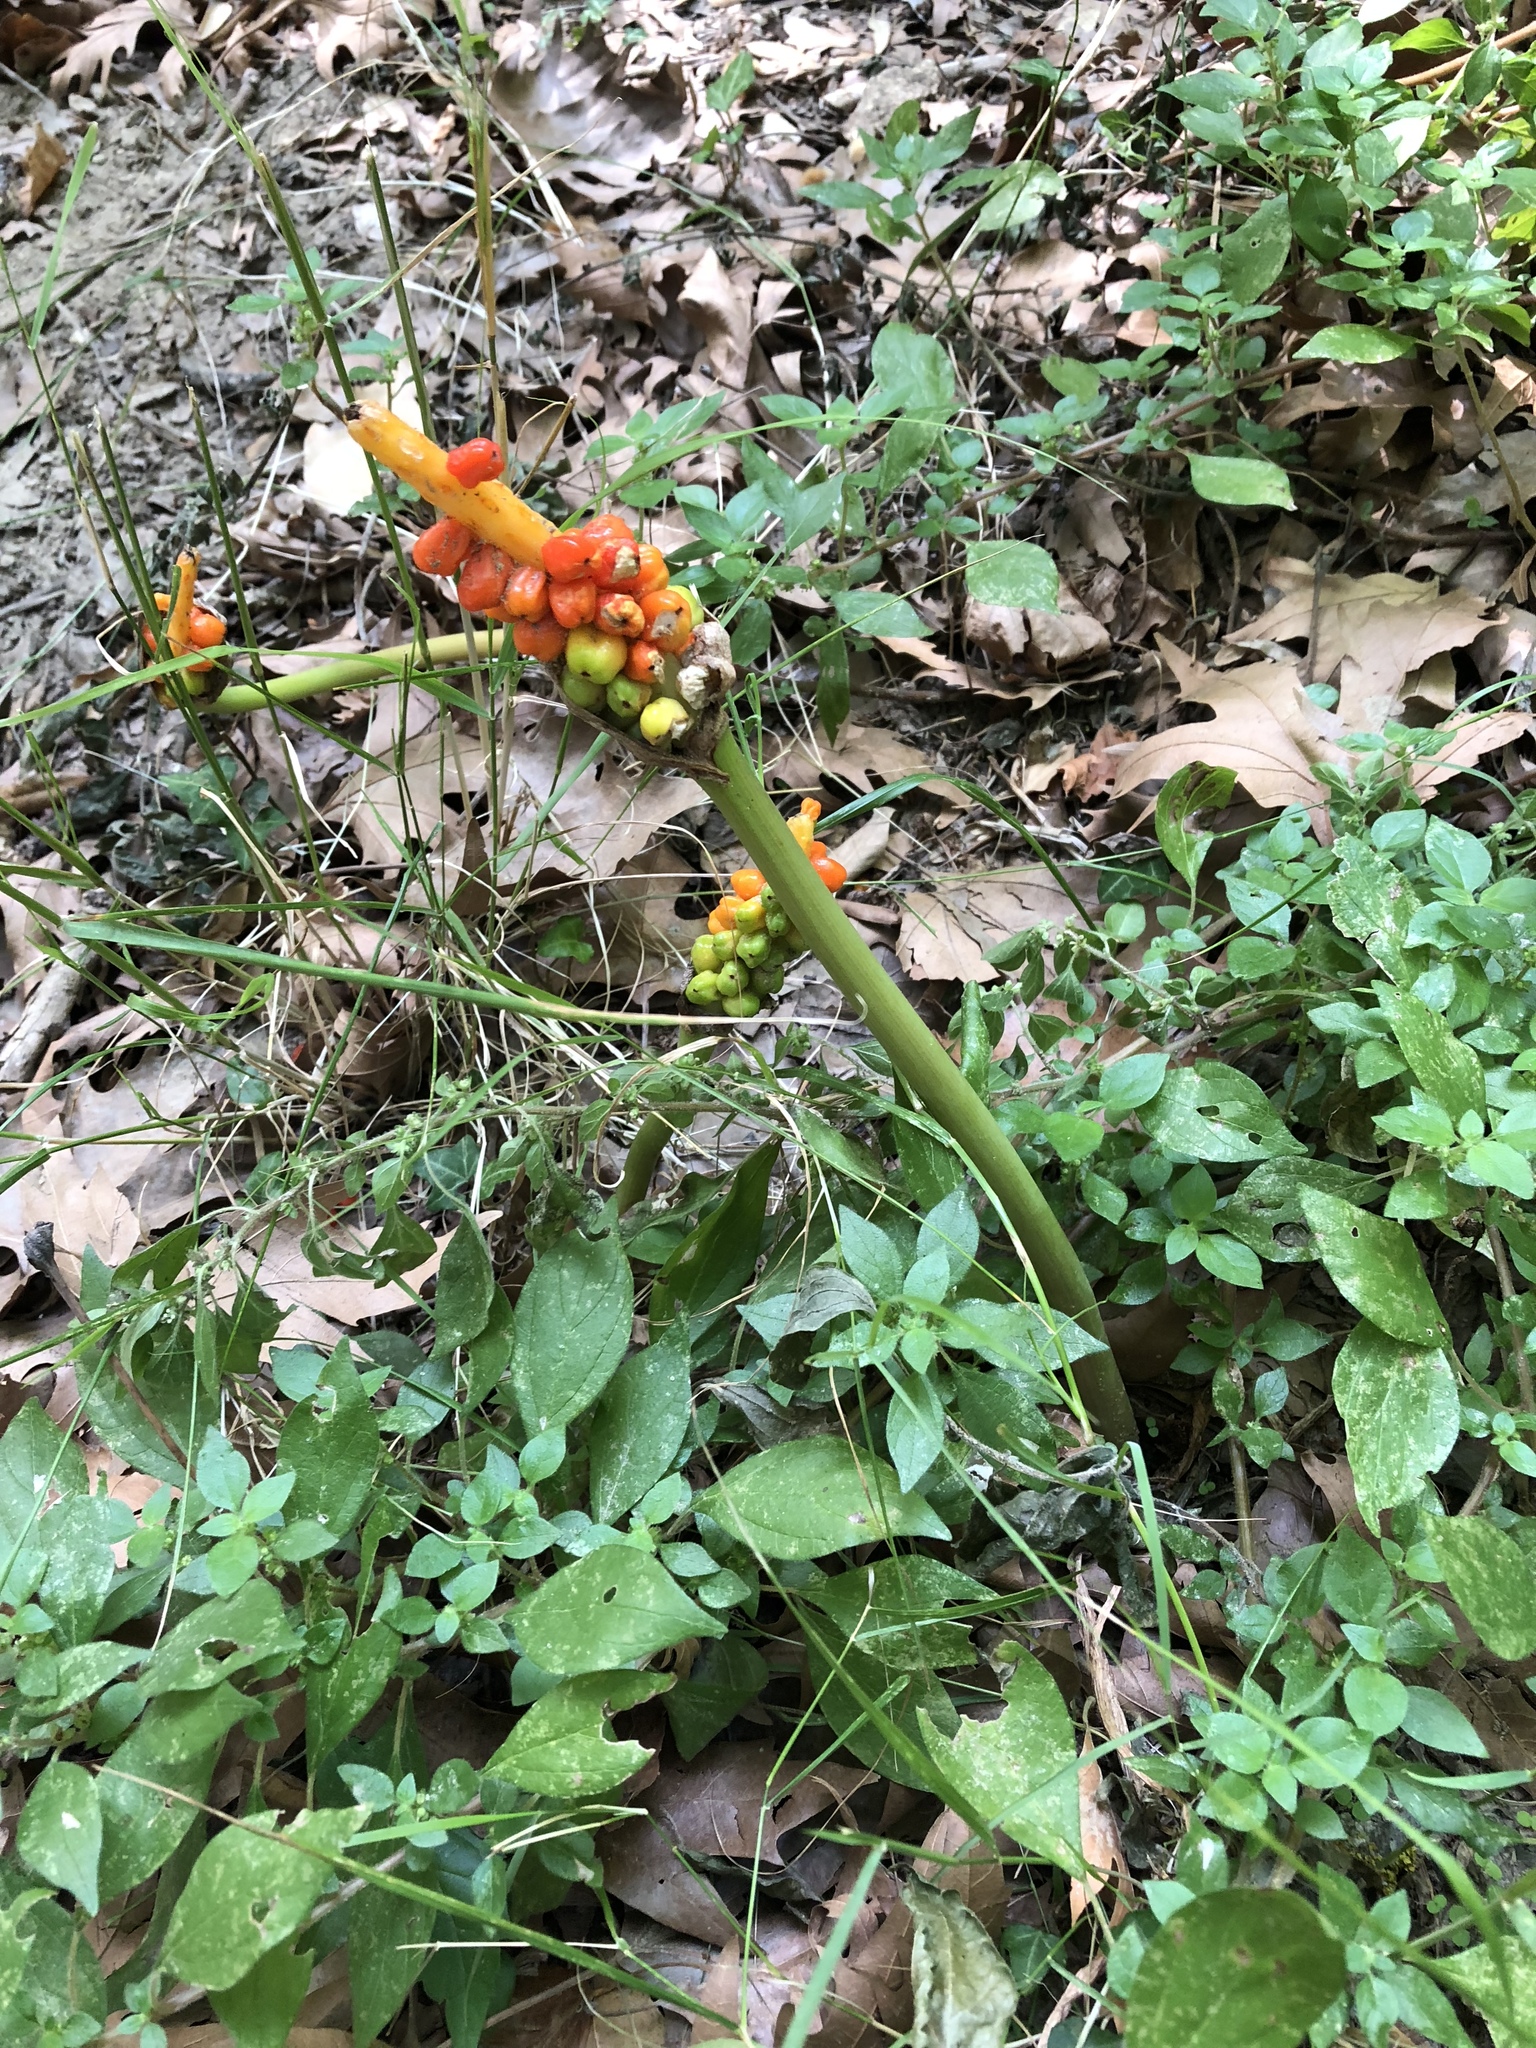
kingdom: Plantae
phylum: Tracheophyta
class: Liliopsida
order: Alismatales
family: Araceae
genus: Arum
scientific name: Arum
